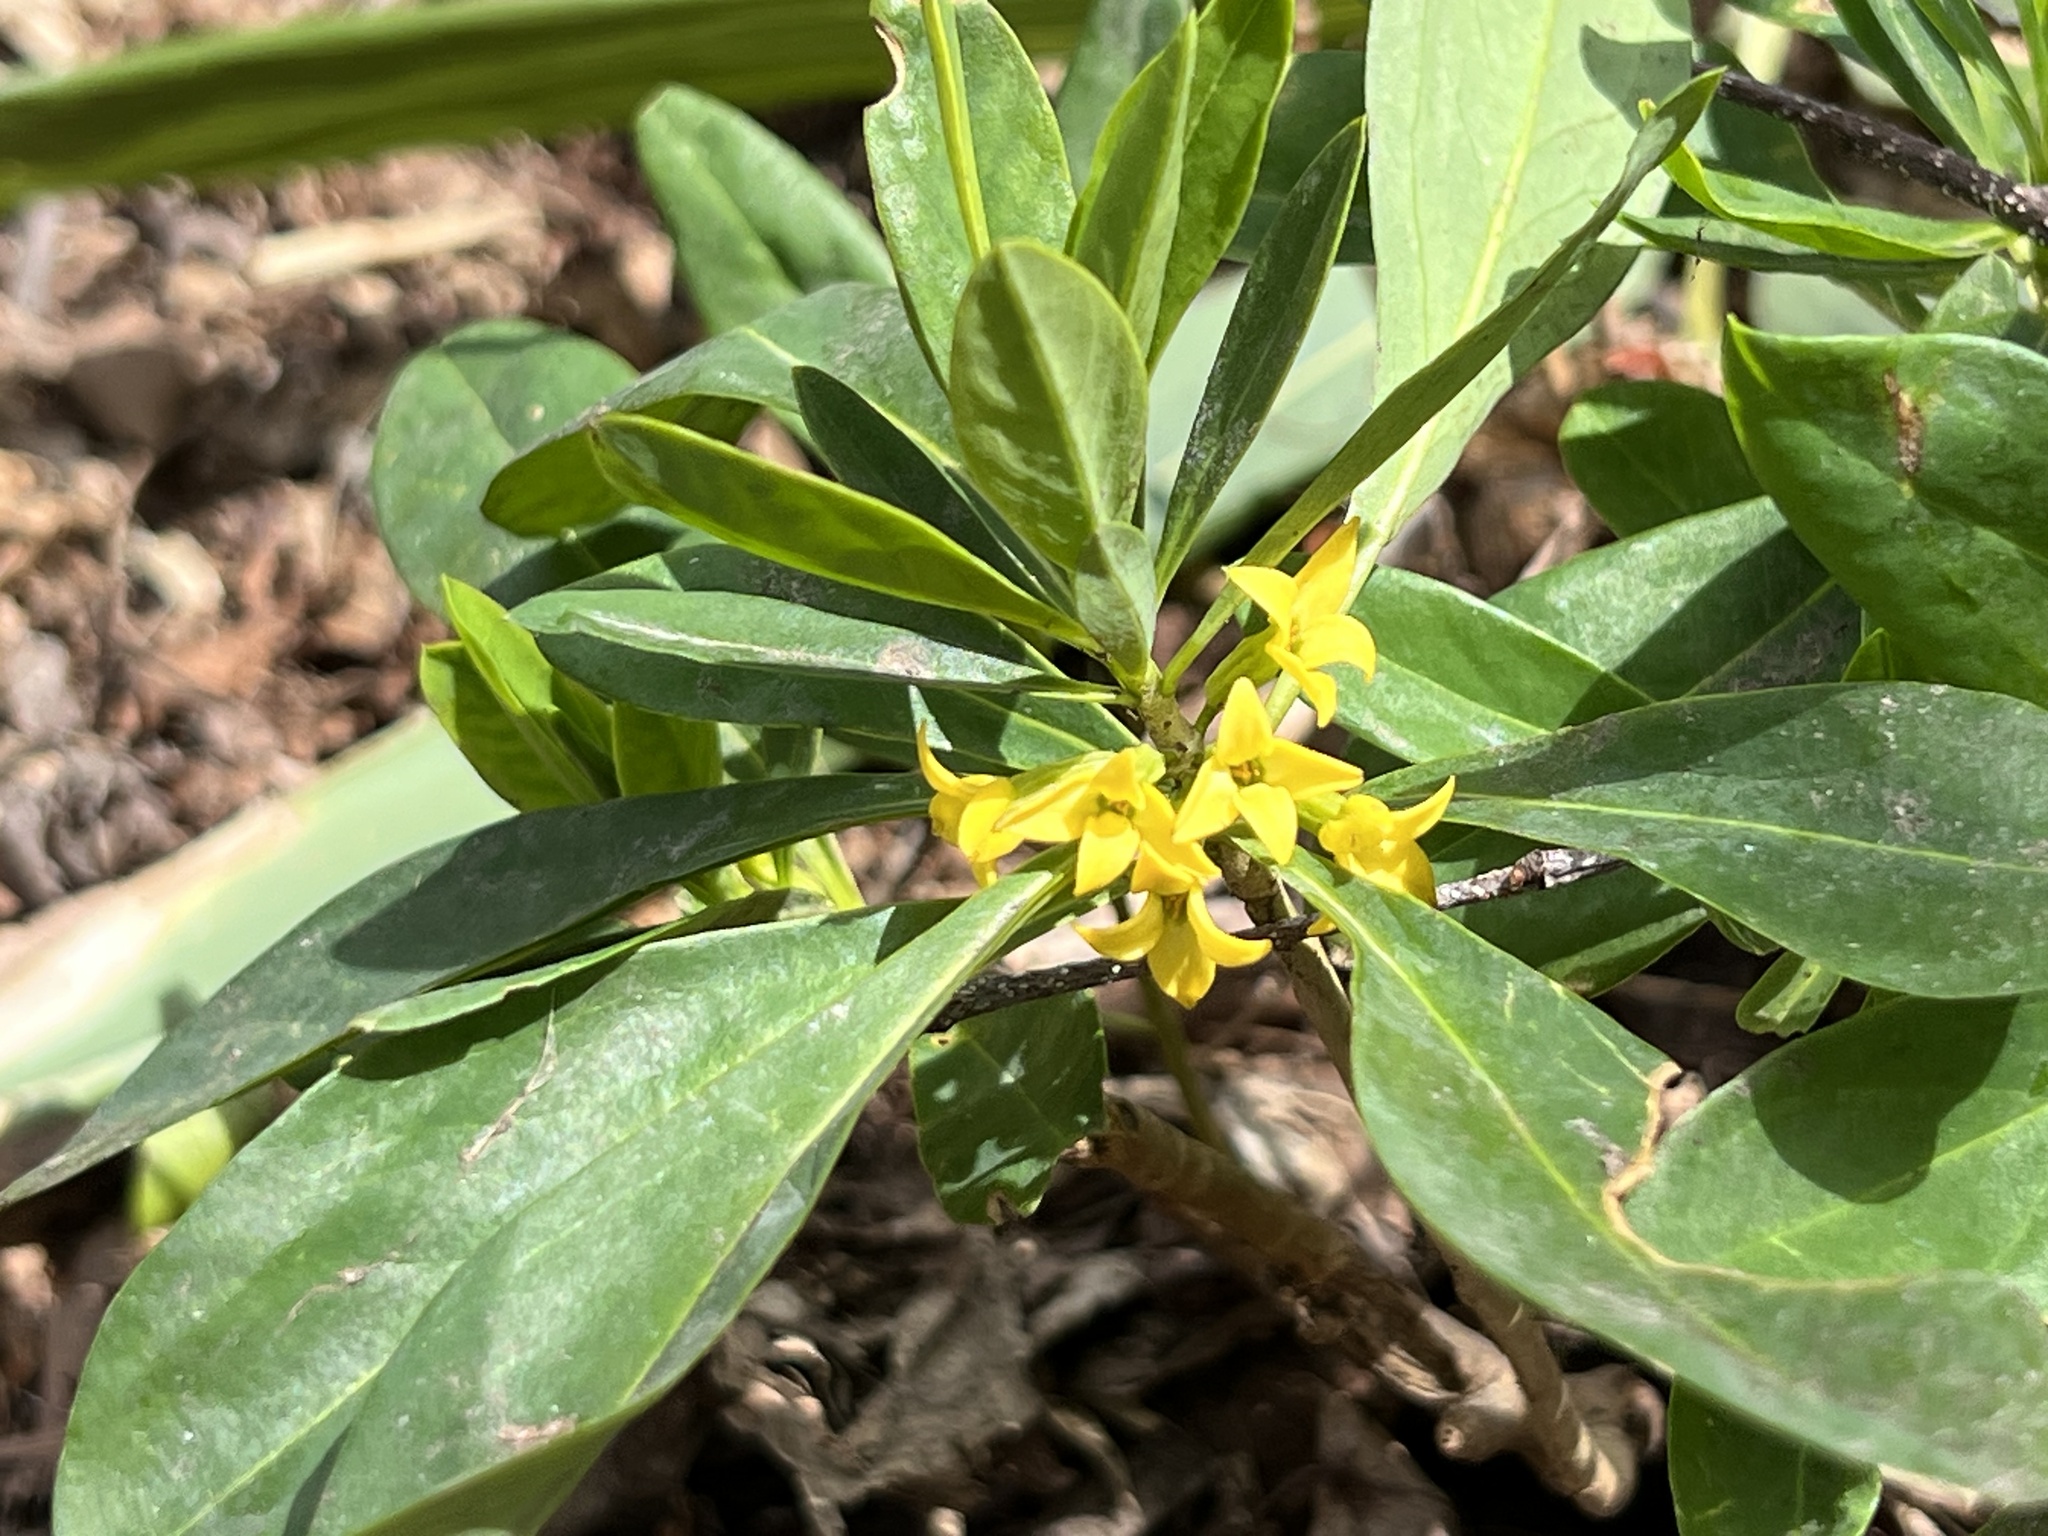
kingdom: Plantae
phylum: Tracheophyta
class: Magnoliopsida
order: Malvales
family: Thymelaeaceae
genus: Daphne
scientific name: Daphne jezoensis
